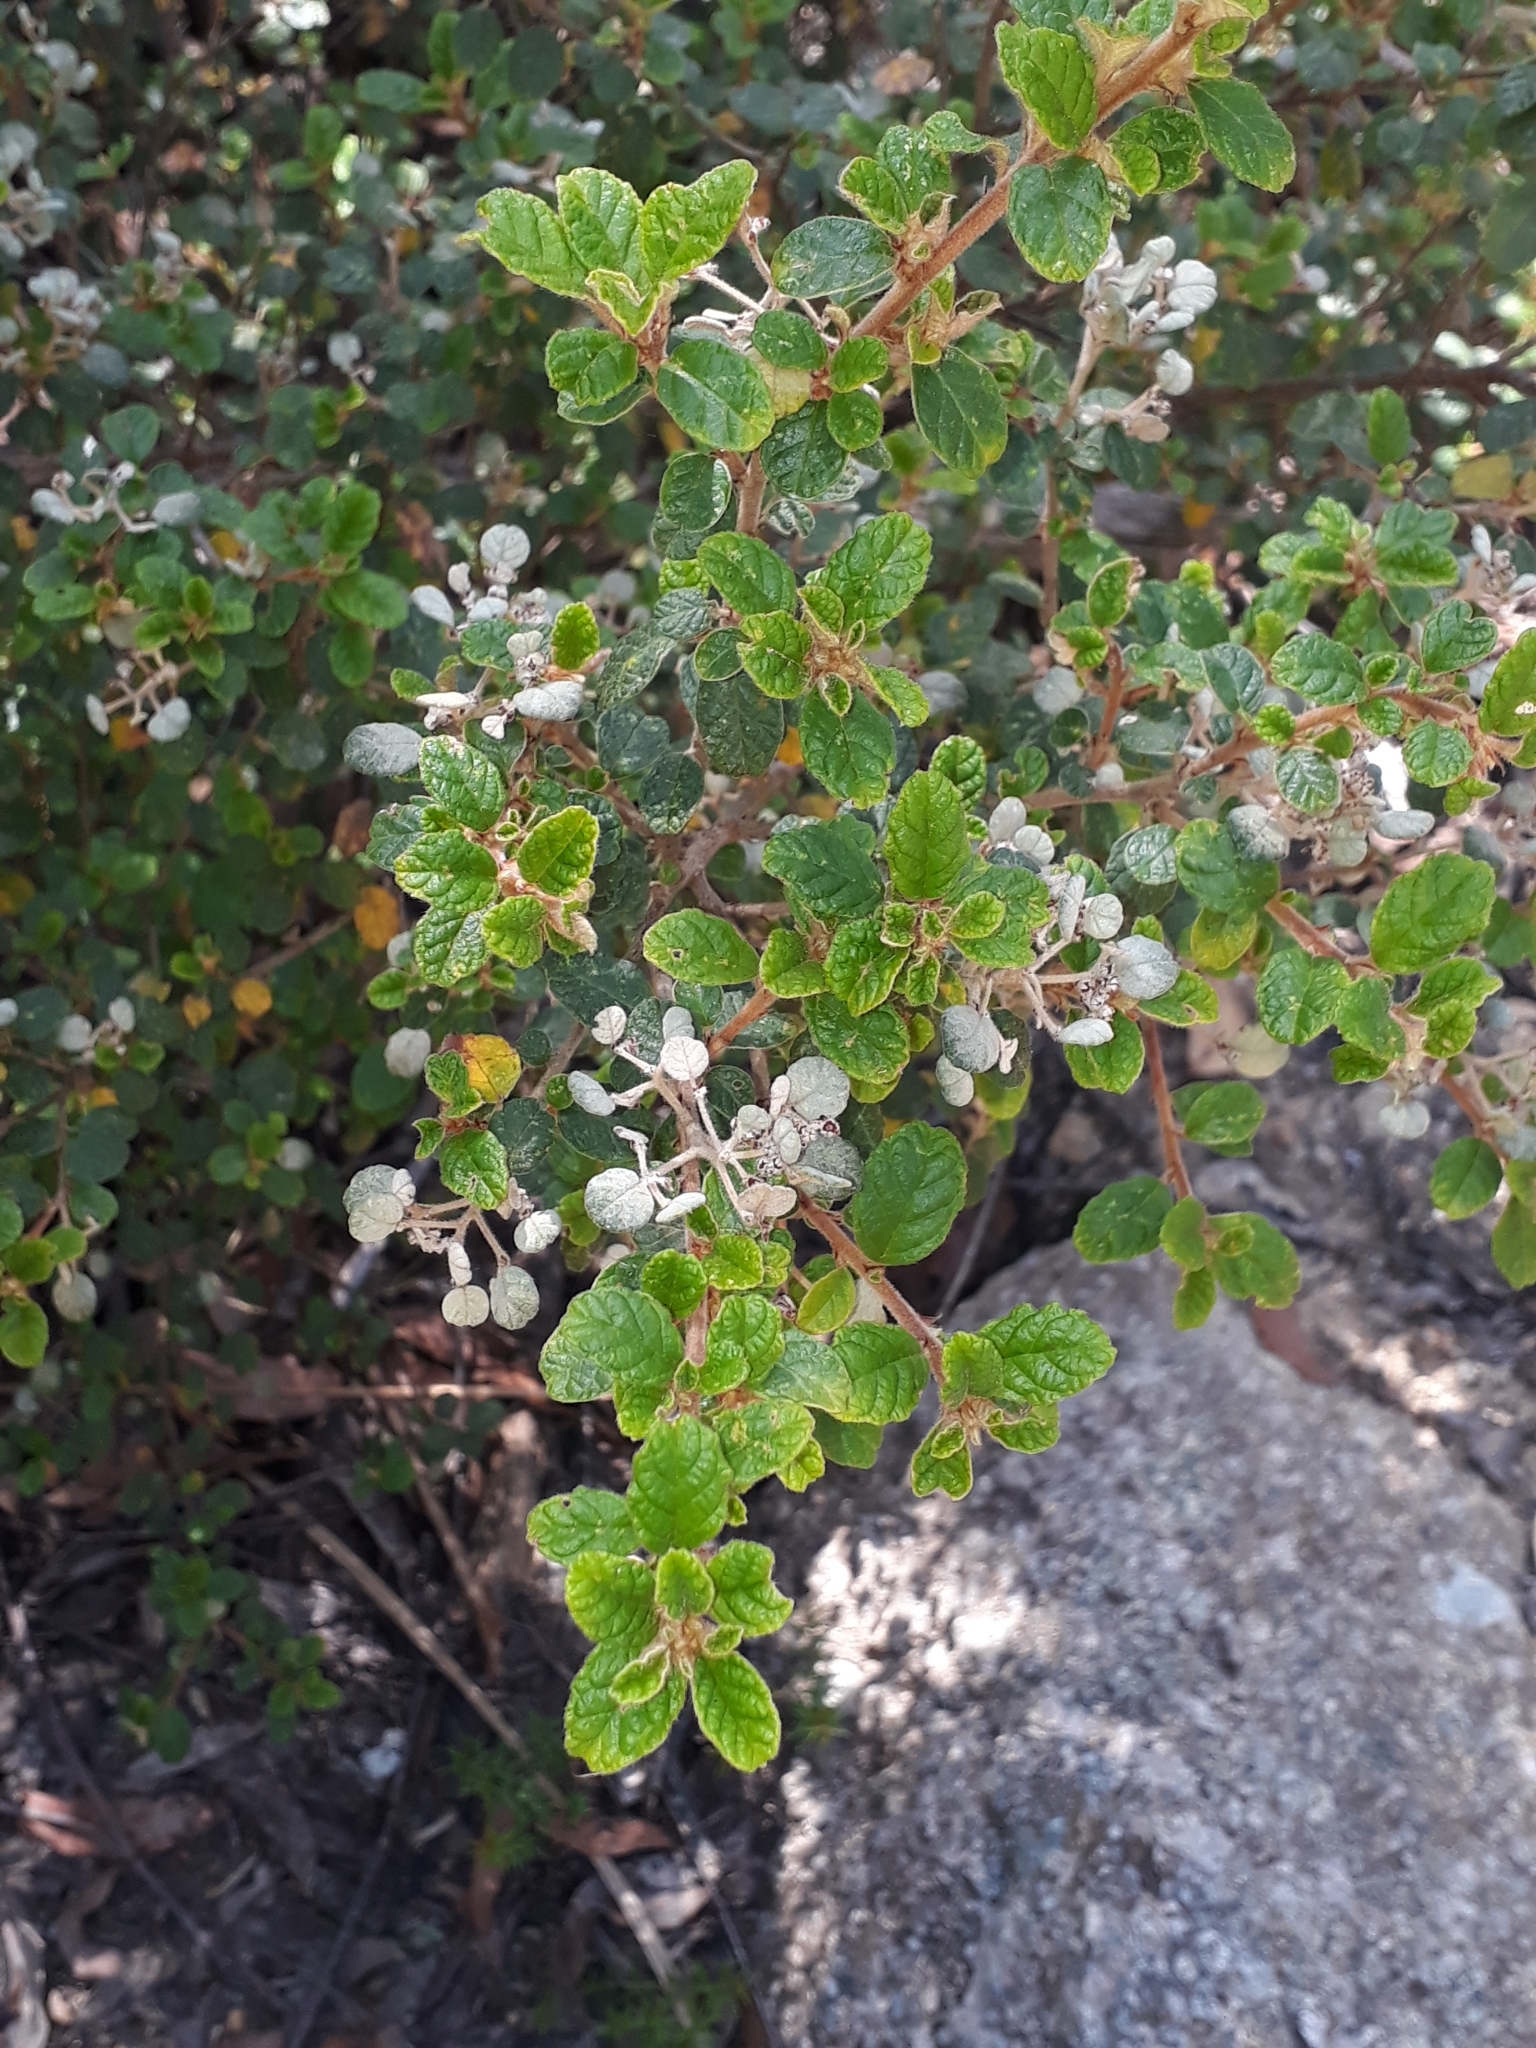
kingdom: Plantae
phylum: Tracheophyta
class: Magnoliopsida
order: Rosales
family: Rhamnaceae
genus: Spyridium
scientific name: Spyridium parvifolium
